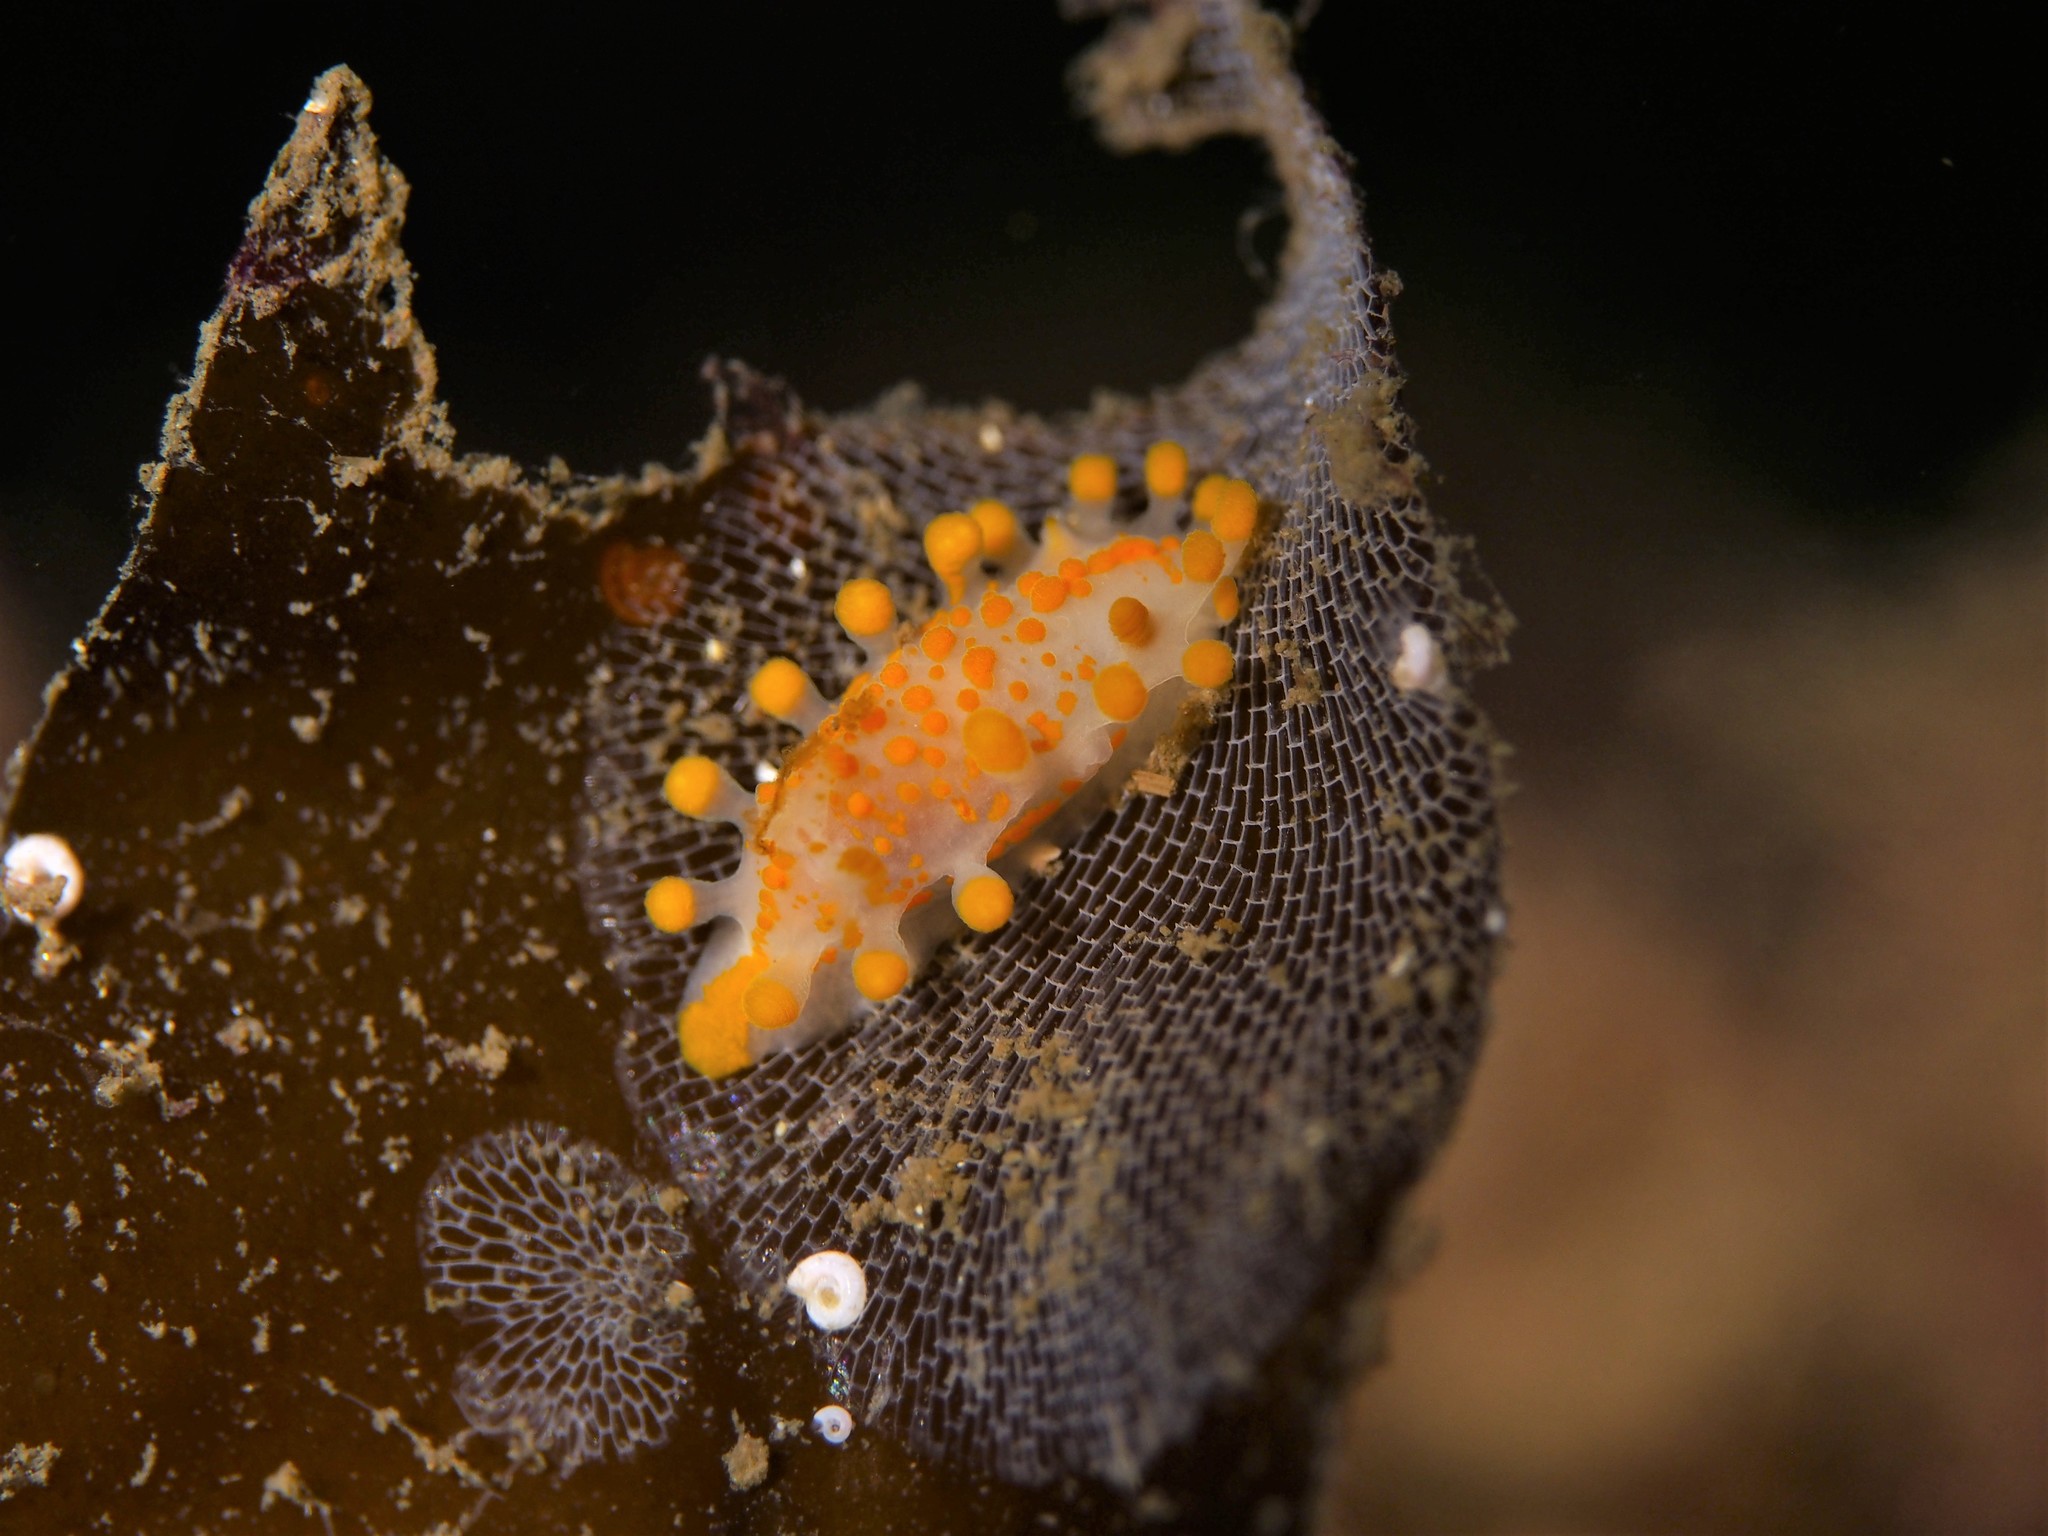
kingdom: Animalia
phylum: Mollusca
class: Gastropoda
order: Nudibranchia
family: Polyceridae
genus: Limacia
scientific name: Limacia clavigera
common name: Orange-clubbed sea slug
